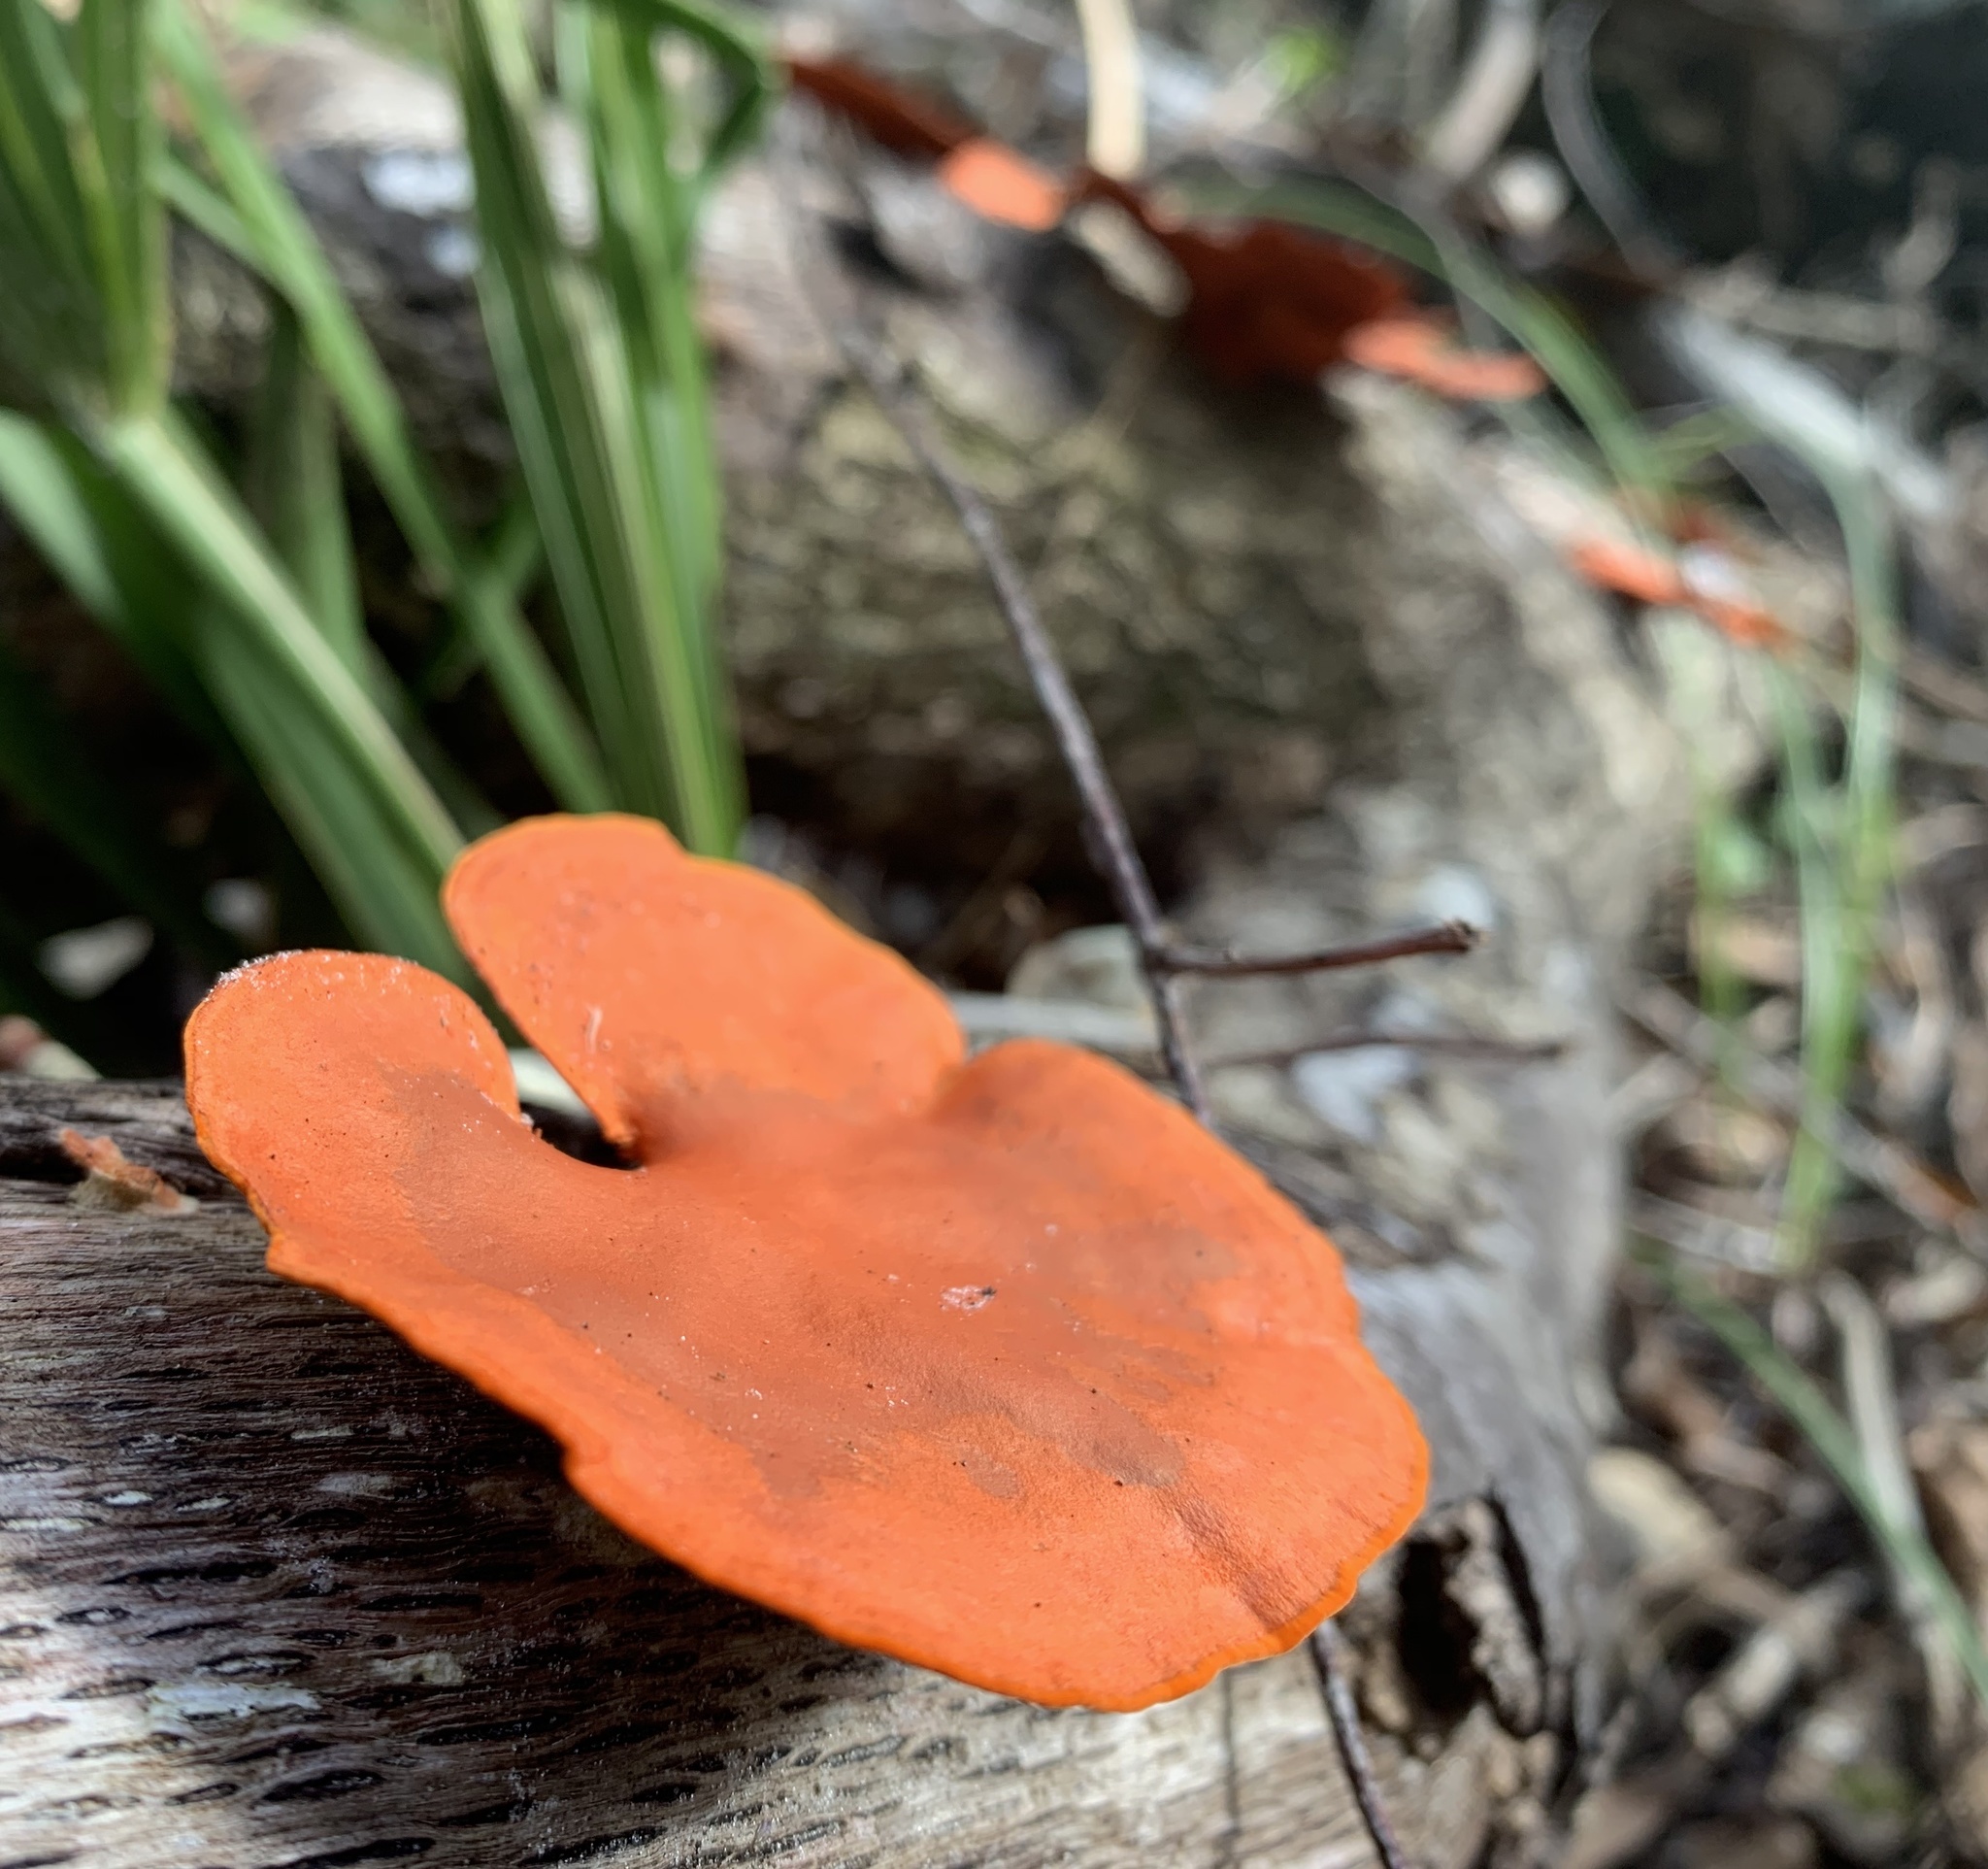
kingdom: Fungi
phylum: Basidiomycota
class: Agaricomycetes
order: Polyporales
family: Polyporaceae
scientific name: Polyporaceae
